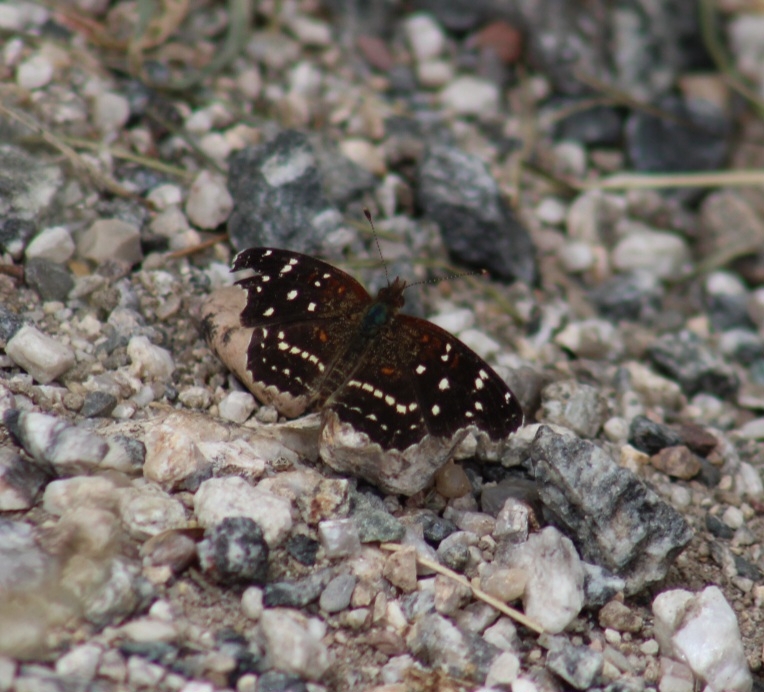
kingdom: Animalia
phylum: Arthropoda
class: Insecta
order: Lepidoptera
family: Nymphalidae
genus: Anthanassa
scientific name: Anthanassa texana
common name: Texan crescent
